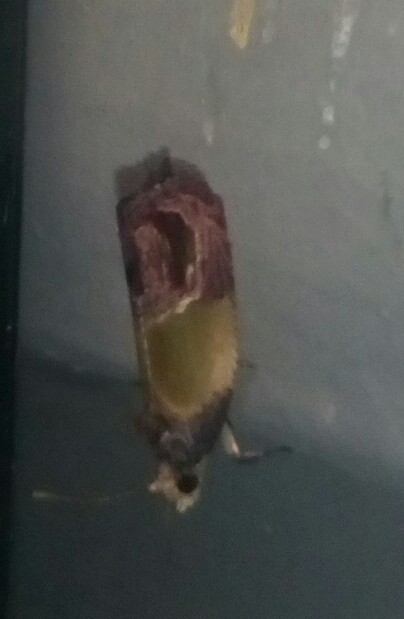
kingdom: Animalia
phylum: Arthropoda
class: Insecta
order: Lepidoptera
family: Tortricidae
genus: Eumarozia
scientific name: Eumarozia malachitana
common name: Sculptured moth
